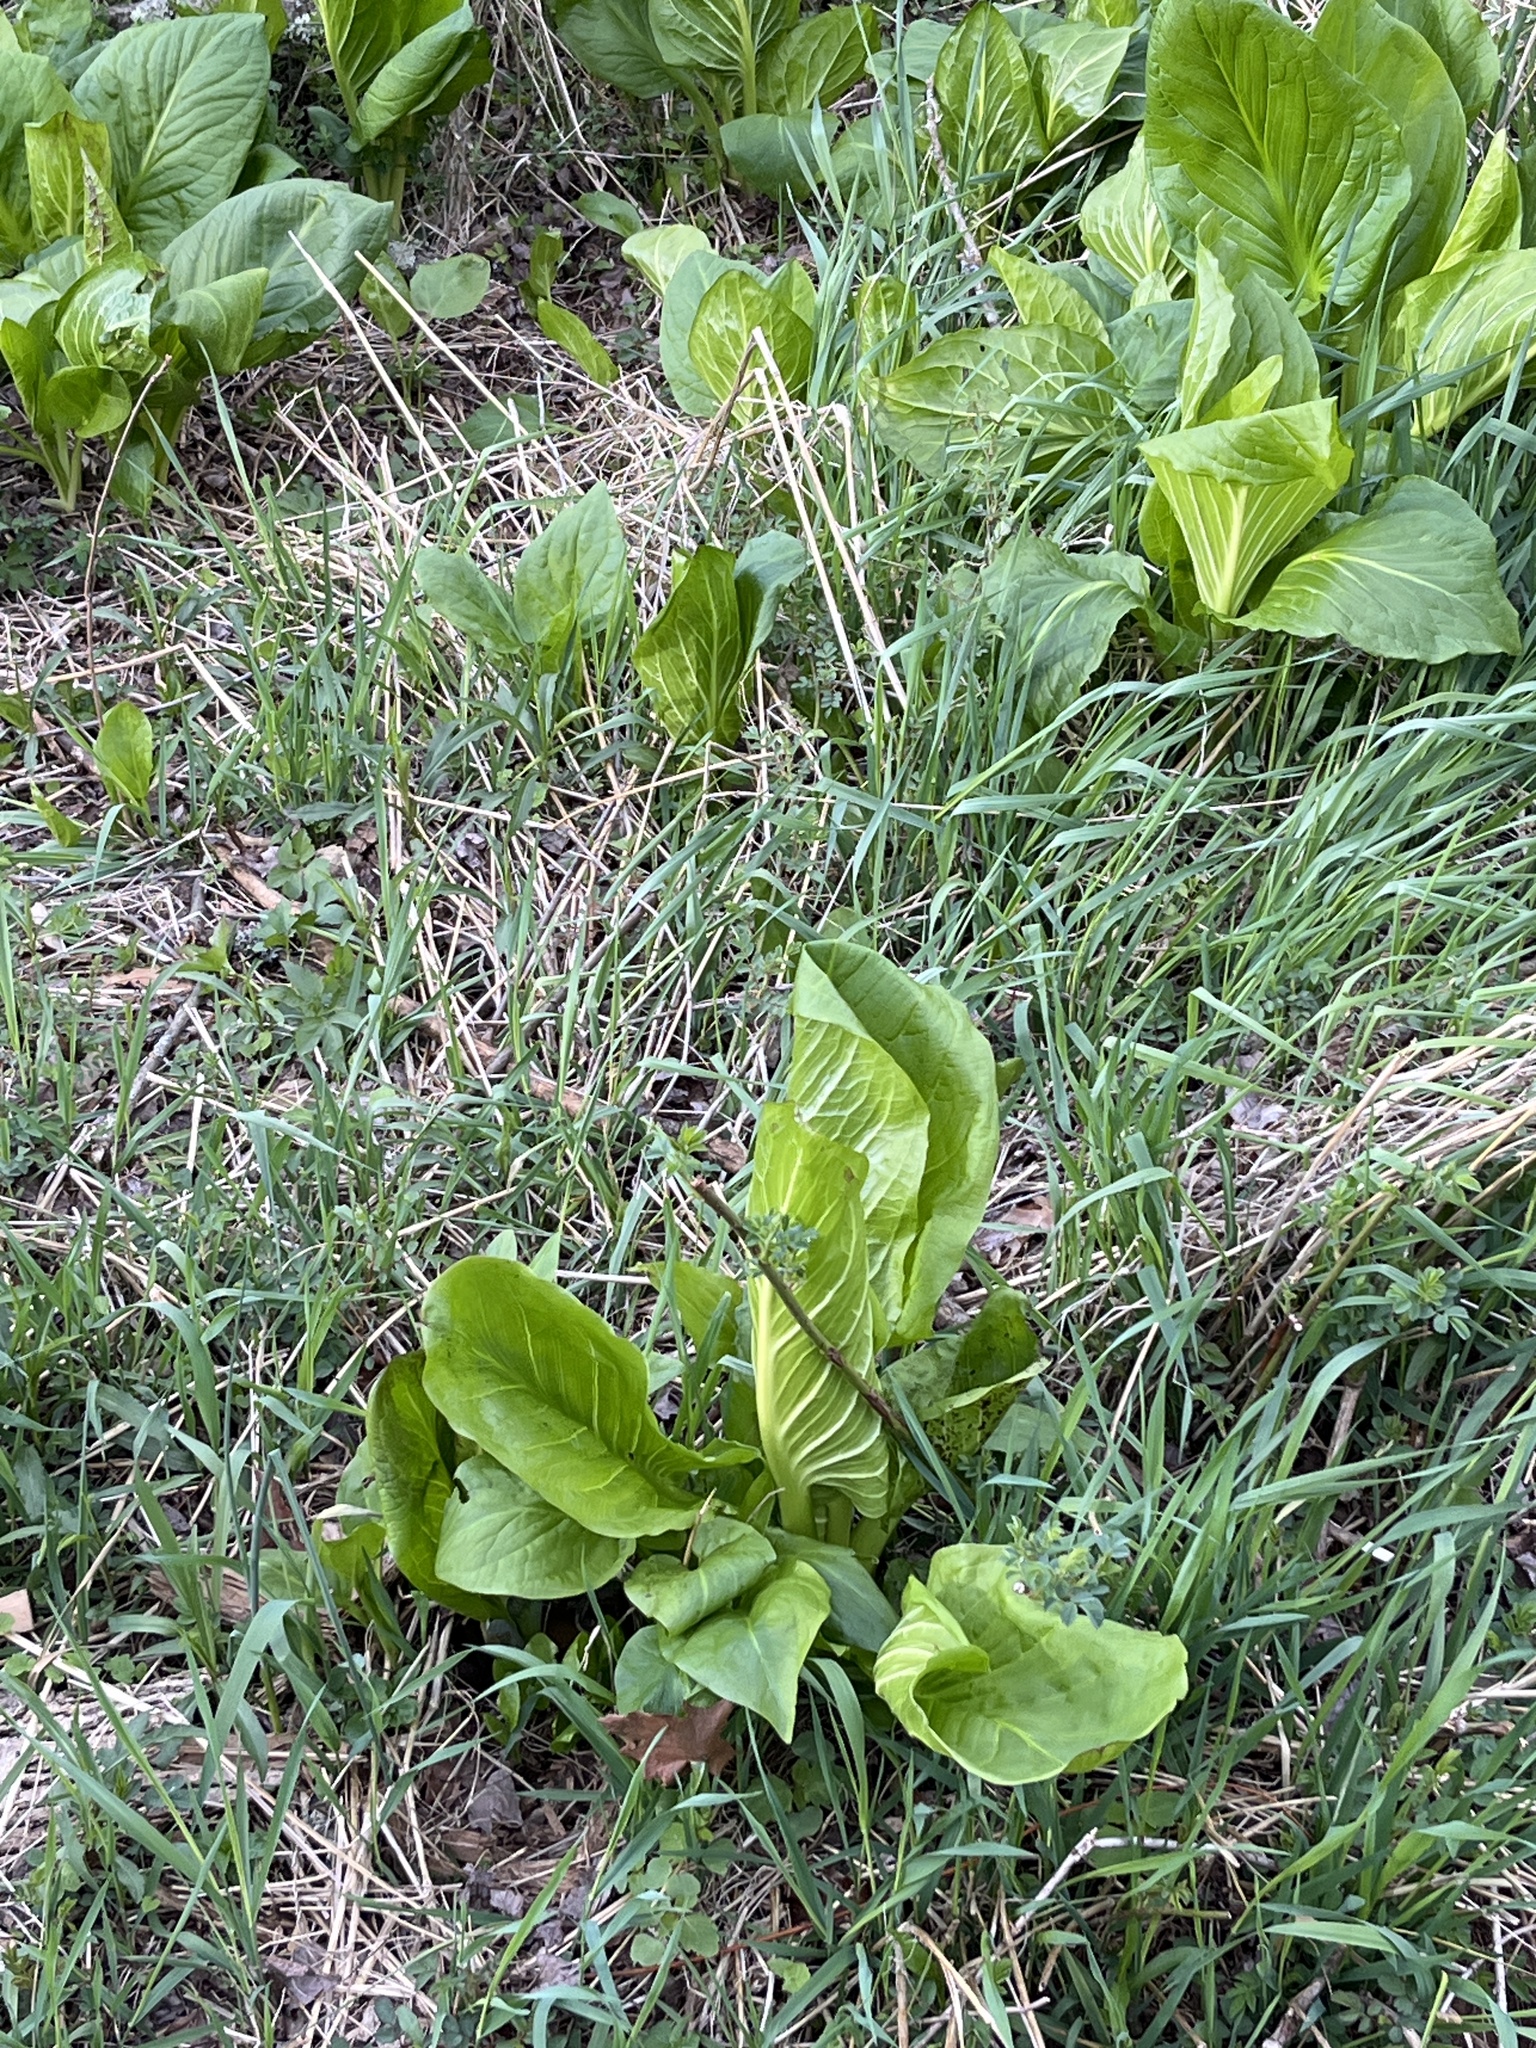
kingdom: Plantae
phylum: Tracheophyta
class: Liliopsida
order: Alismatales
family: Araceae
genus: Symplocarpus
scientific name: Symplocarpus foetidus
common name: Eastern skunk cabbage
